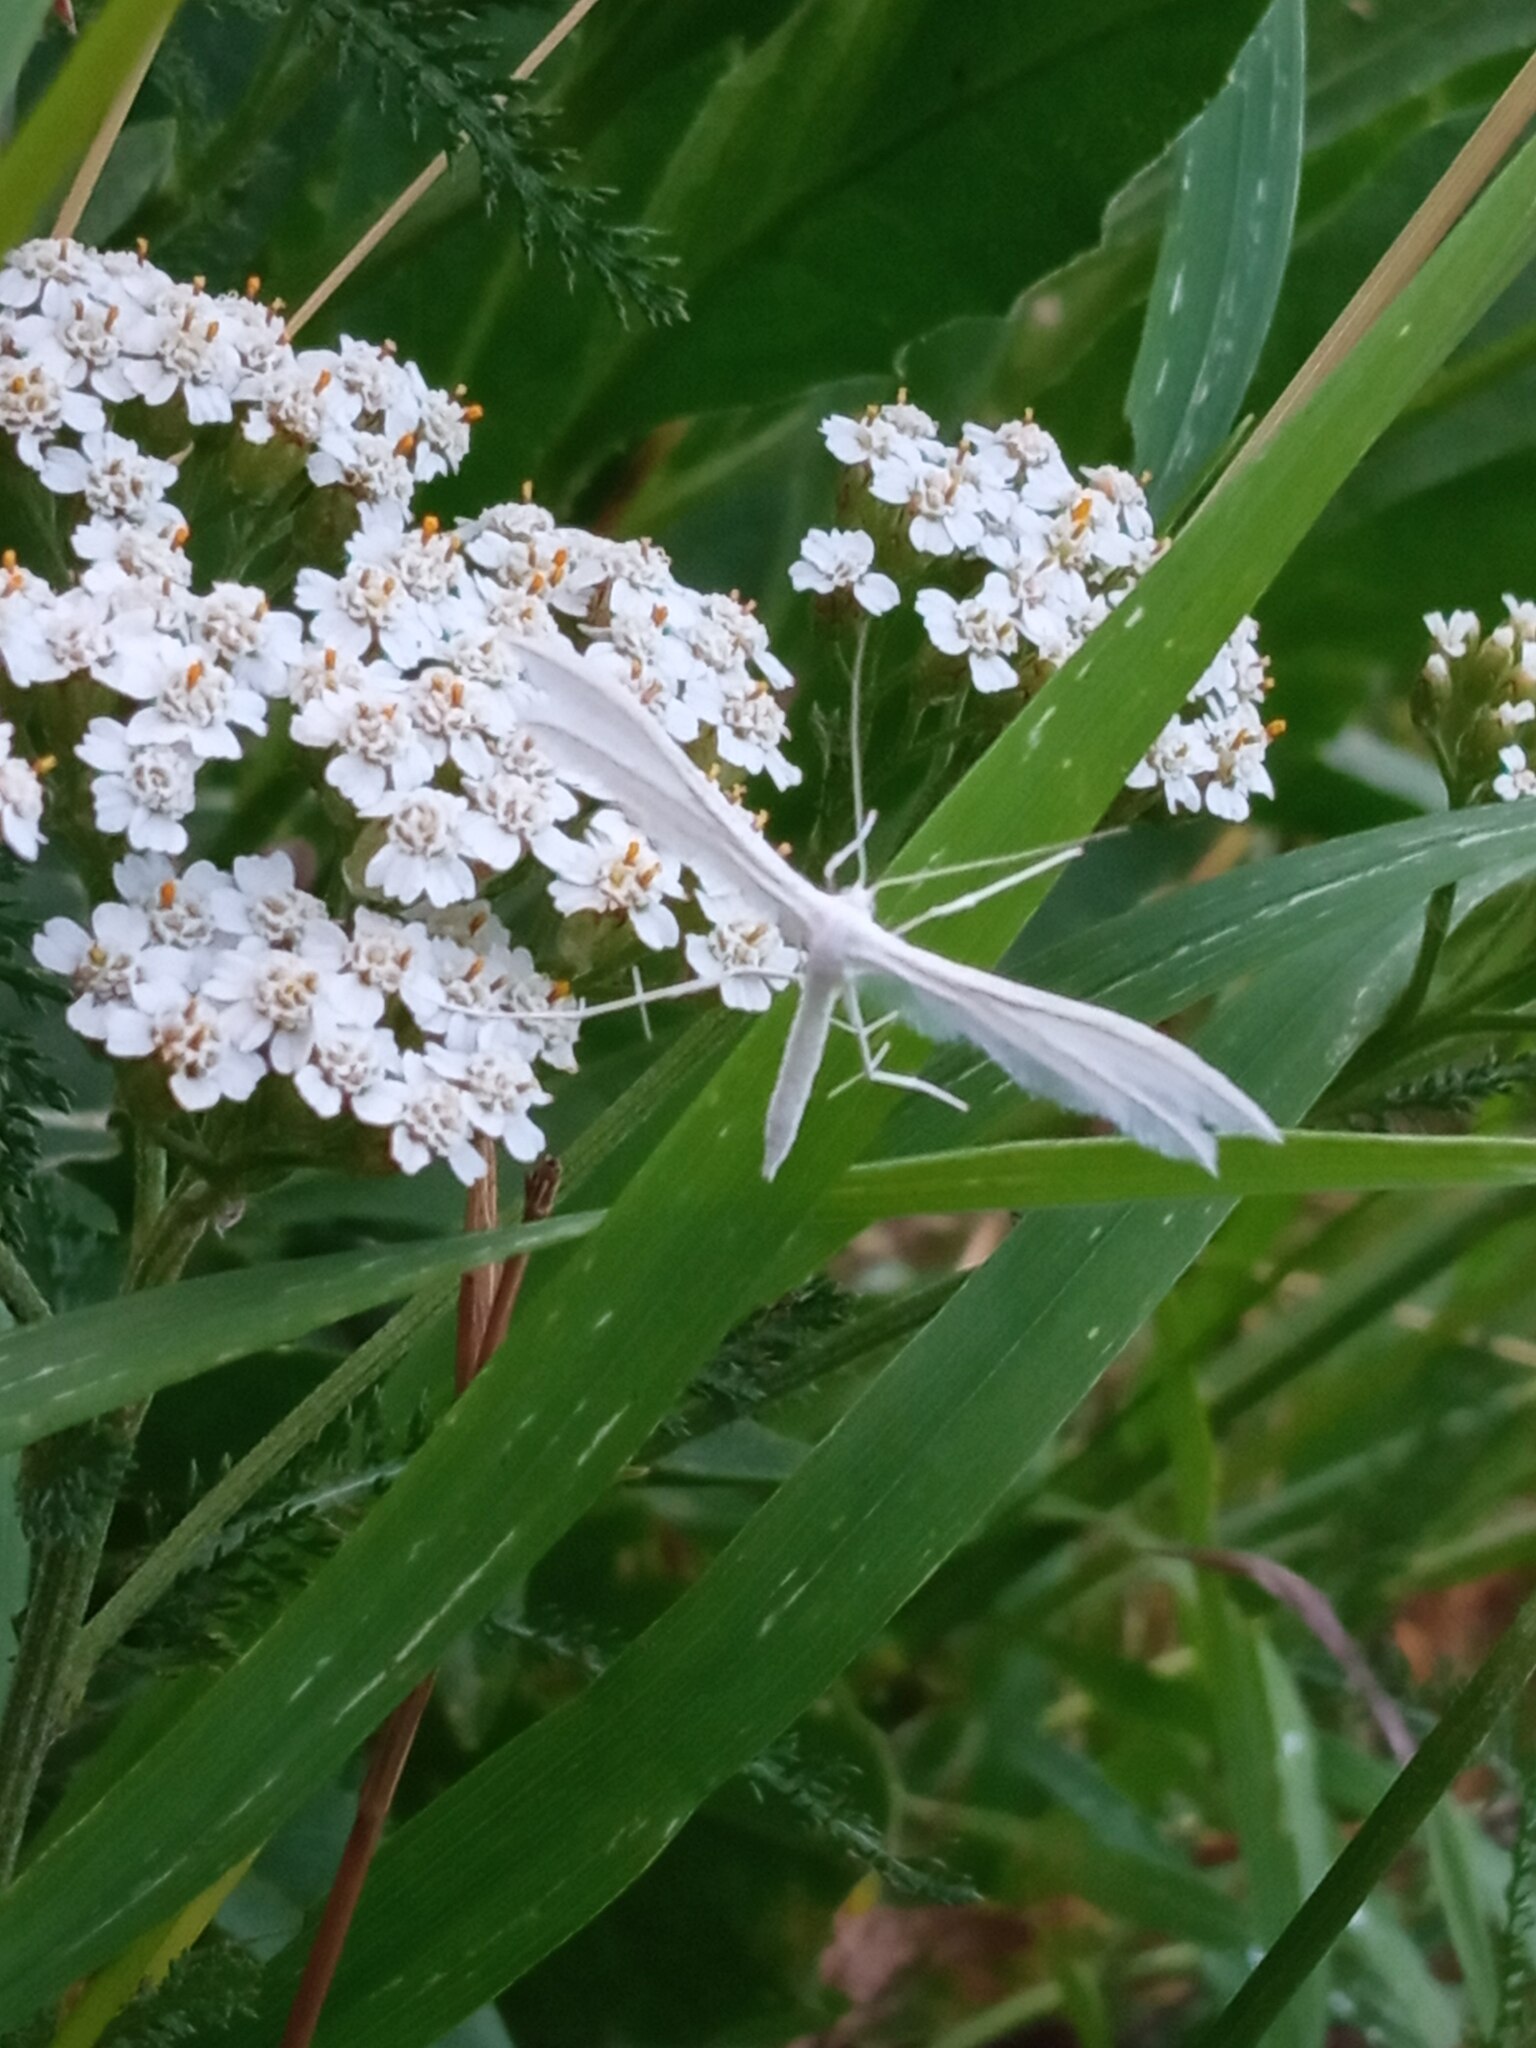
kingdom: Animalia
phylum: Arthropoda
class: Insecta
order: Lepidoptera
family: Pterophoridae
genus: Pterophorus
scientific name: Pterophorus pentadactyla
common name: White plume moth
